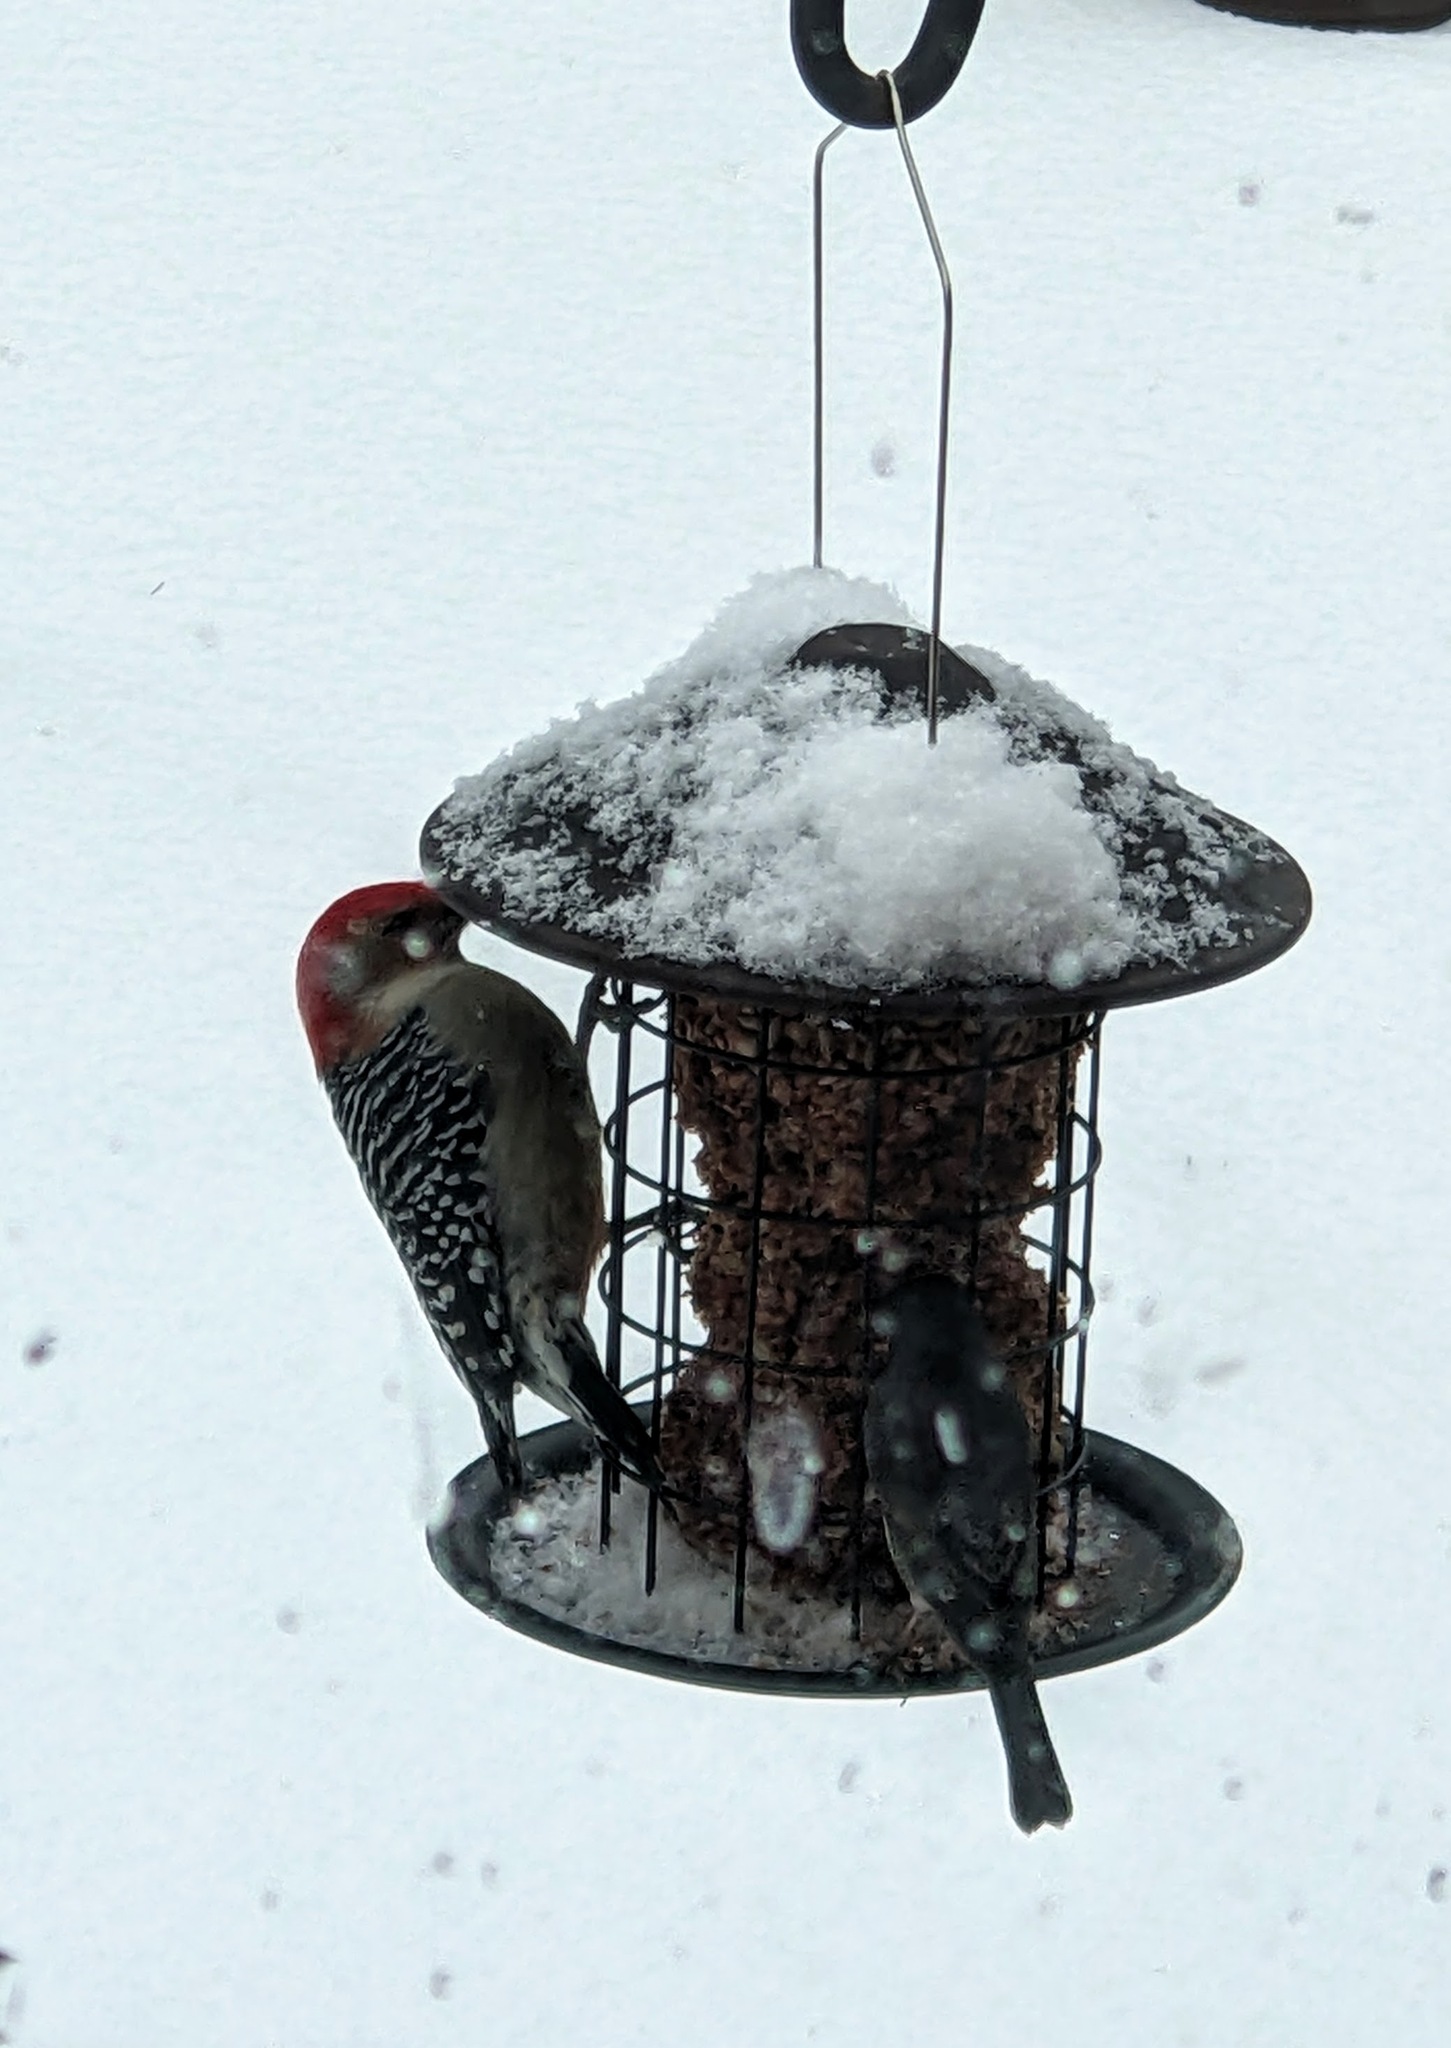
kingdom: Animalia
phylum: Chordata
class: Aves
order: Piciformes
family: Picidae
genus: Melanerpes
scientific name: Melanerpes carolinus
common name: Red-bellied woodpecker
